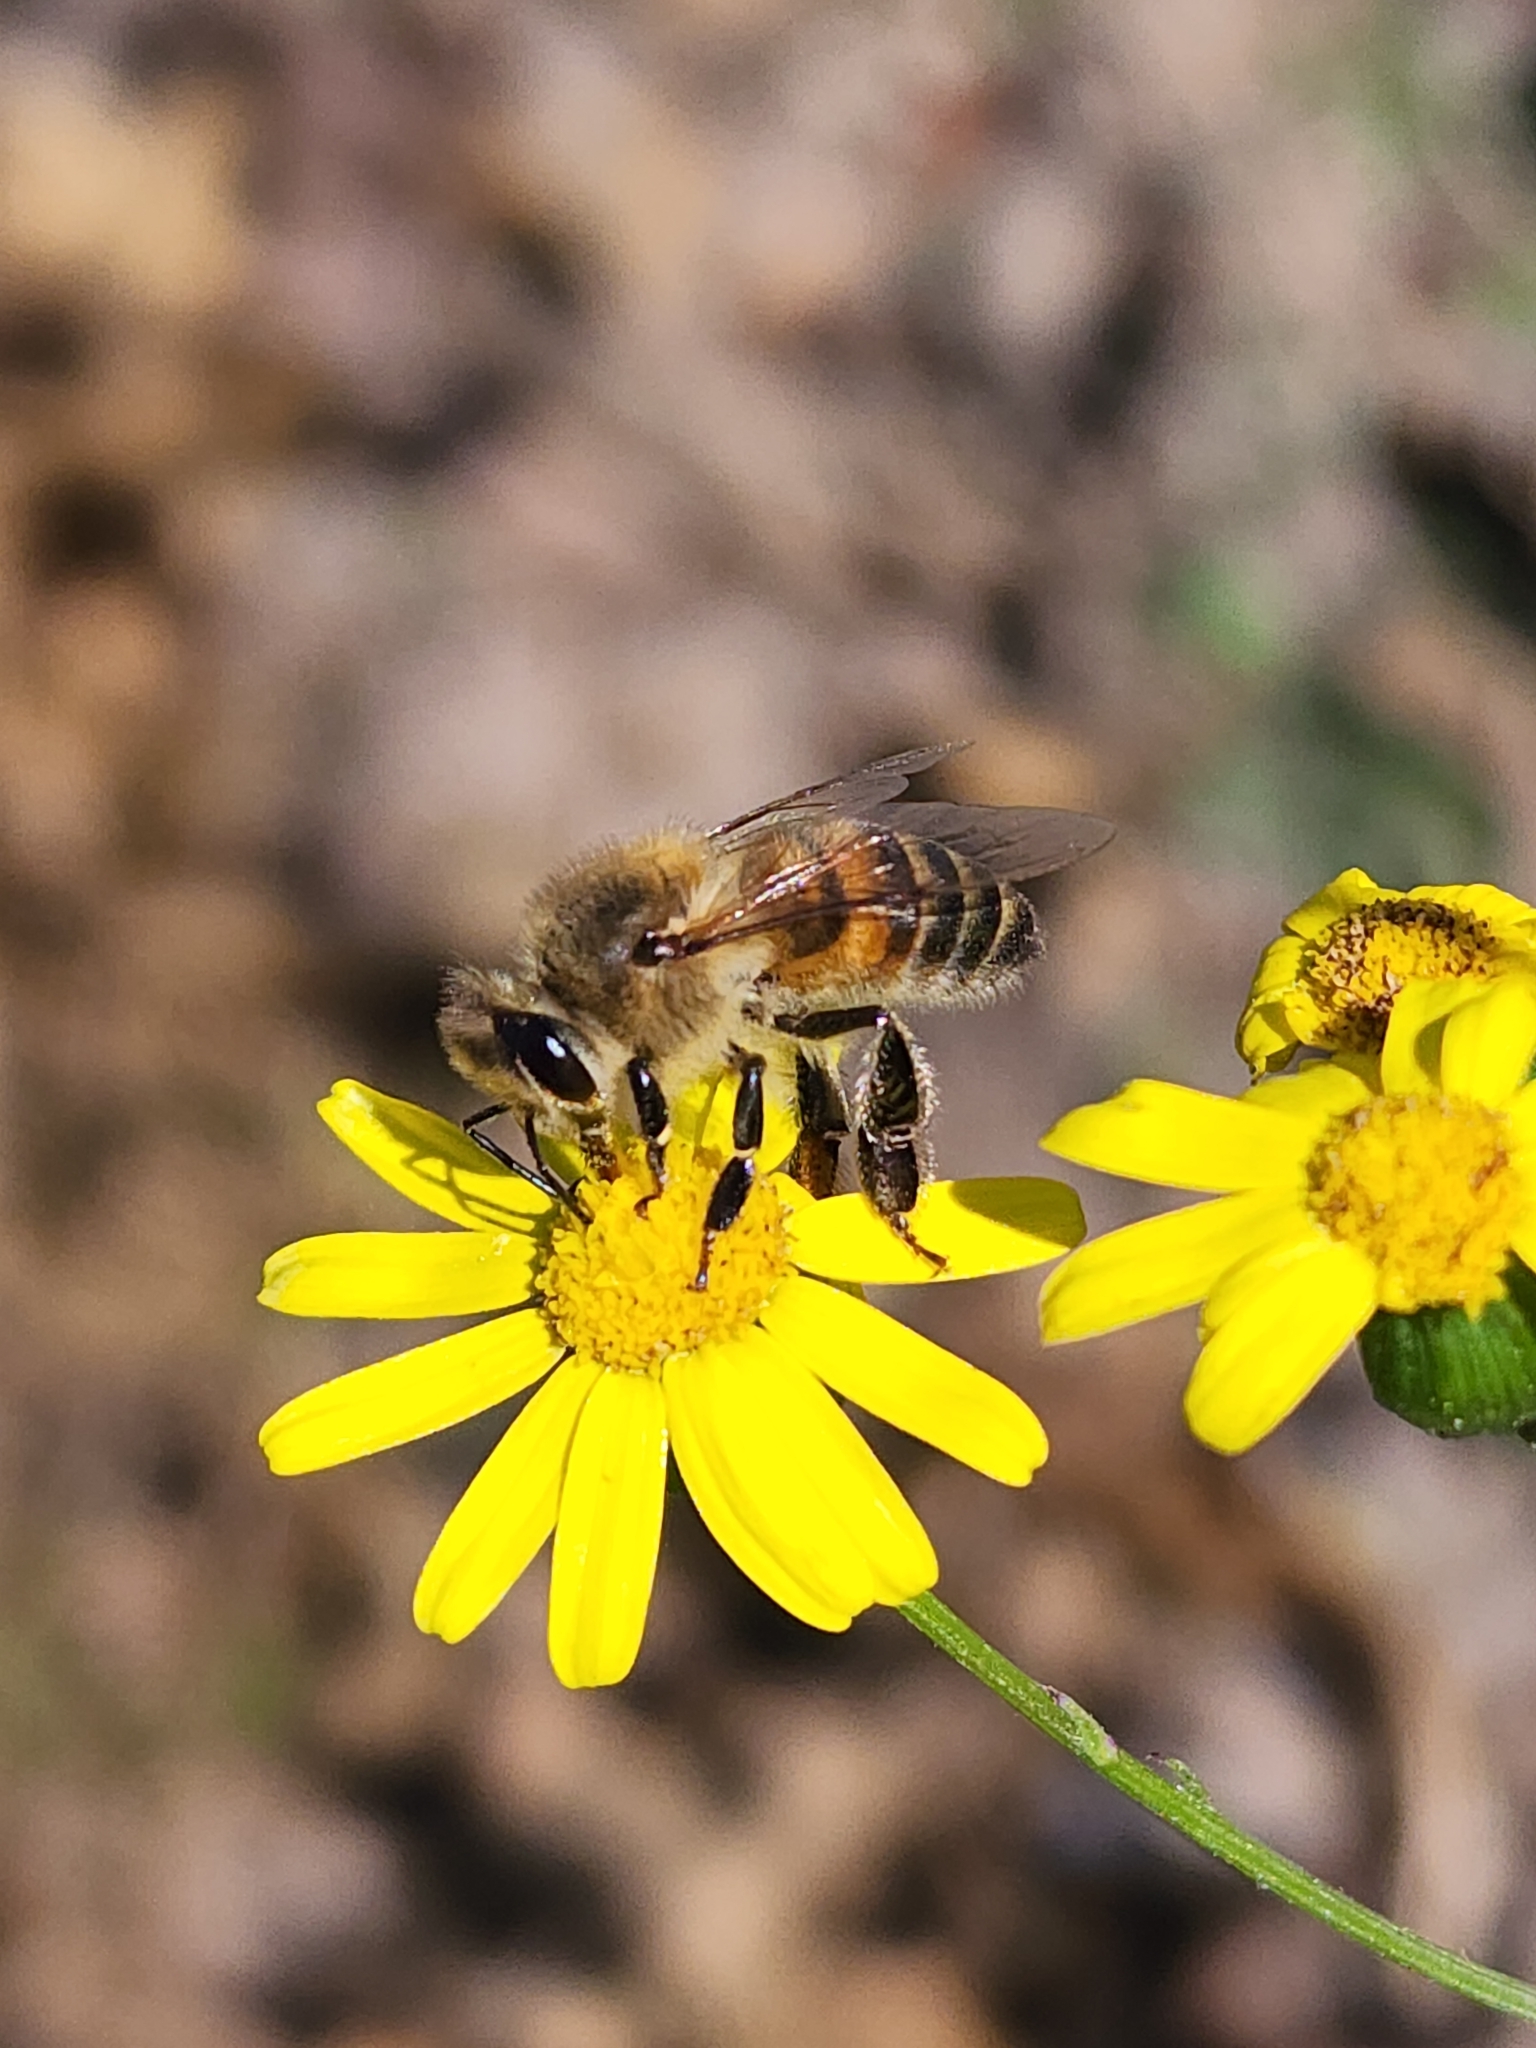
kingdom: Animalia
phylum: Arthropoda
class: Insecta
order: Hymenoptera
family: Apidae
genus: Apis
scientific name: Apis mellifera
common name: Honey bee
